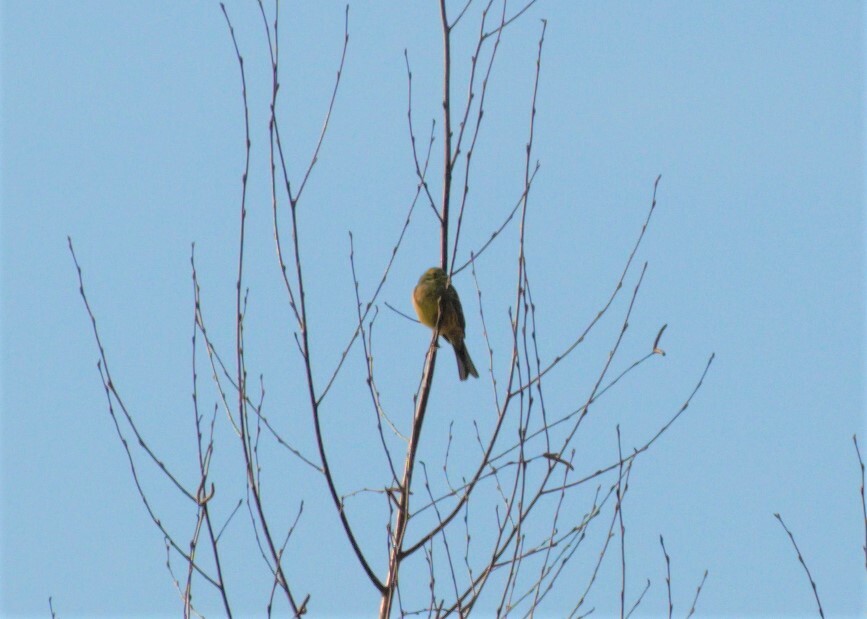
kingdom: Animalia
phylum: Chordata
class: Aves
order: Passeriformes
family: Emberizidae
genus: Emberiza
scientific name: Emberiza citrinella
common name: Yellowhammer
